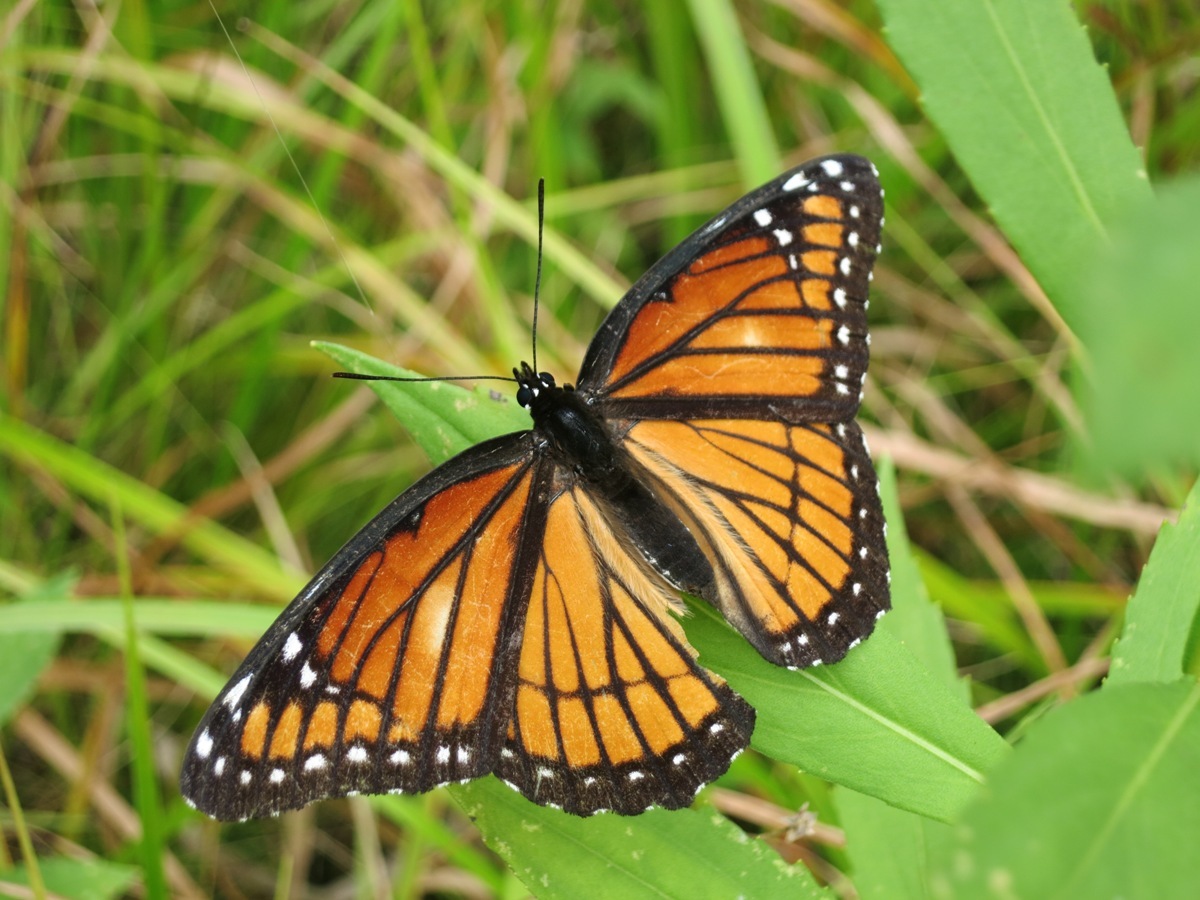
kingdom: Animalia
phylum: Arthropoda
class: Insecta
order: Lepidoptera
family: Nymphalidae
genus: Limenitis
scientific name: Limenitis archippus
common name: Viceroy
